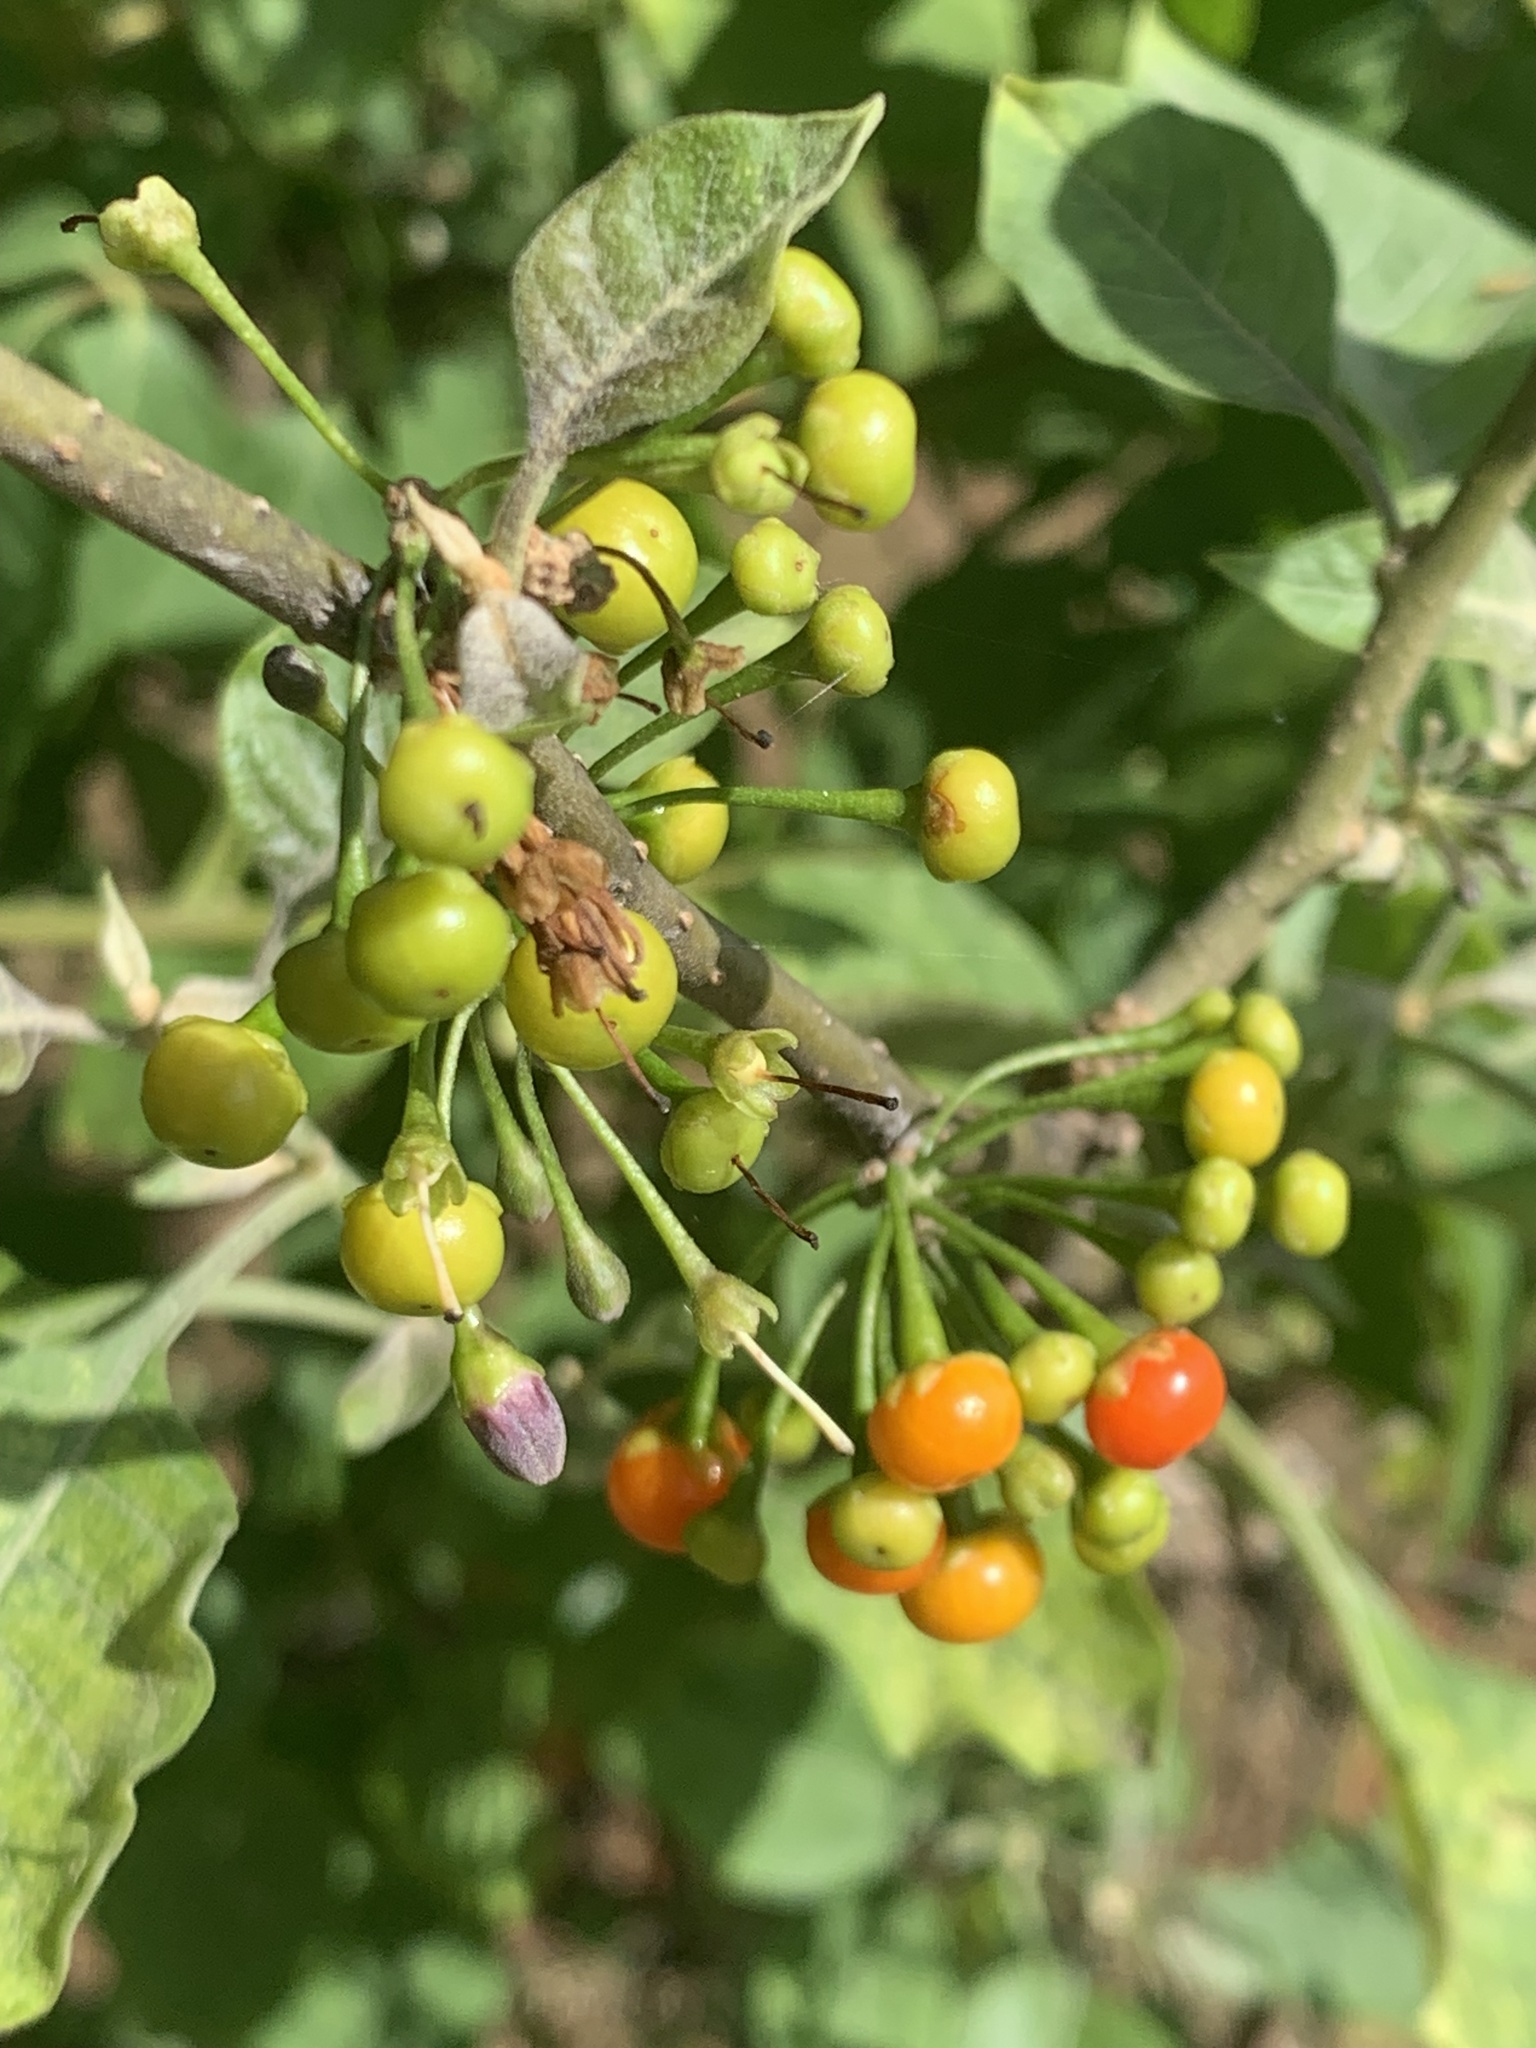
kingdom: Plantae
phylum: Tracheophyta
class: Magnoliopsida
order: Solanales
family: Solanaceae
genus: Vassobia
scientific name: Vassobia breviflora
